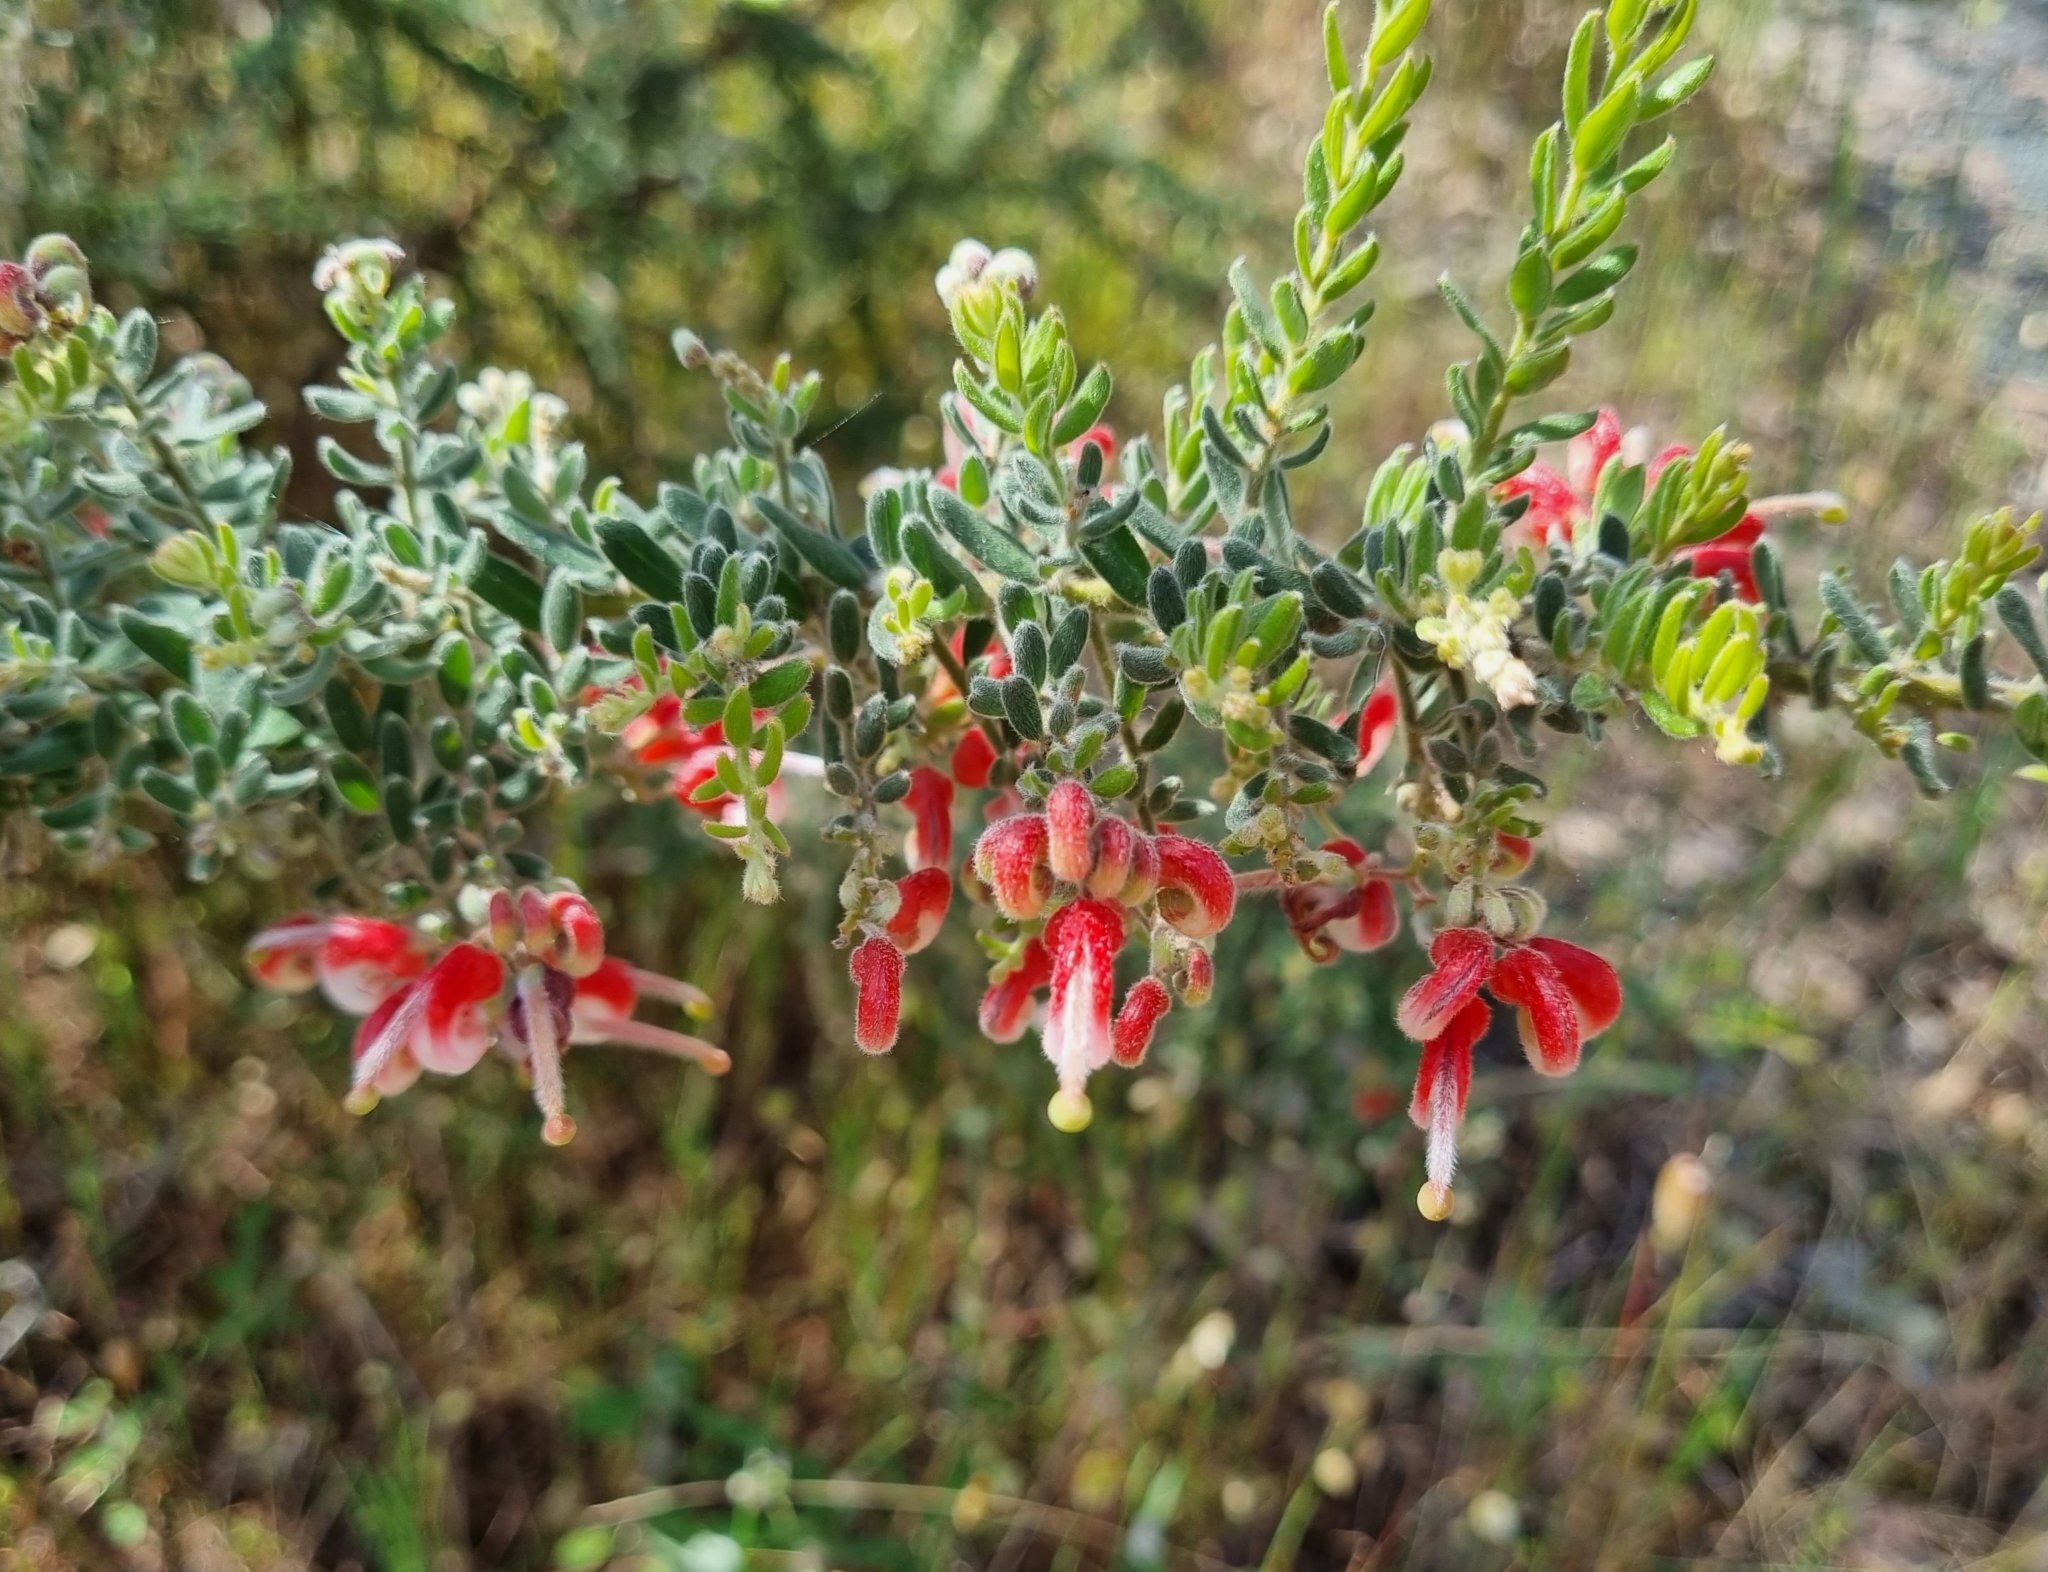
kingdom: Plantae
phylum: Tracheophyta
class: Magnoliopsida
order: Proteales
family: Proteaceae
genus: Grevillea
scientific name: Grevillea alpina
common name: Catclaws grevillea
